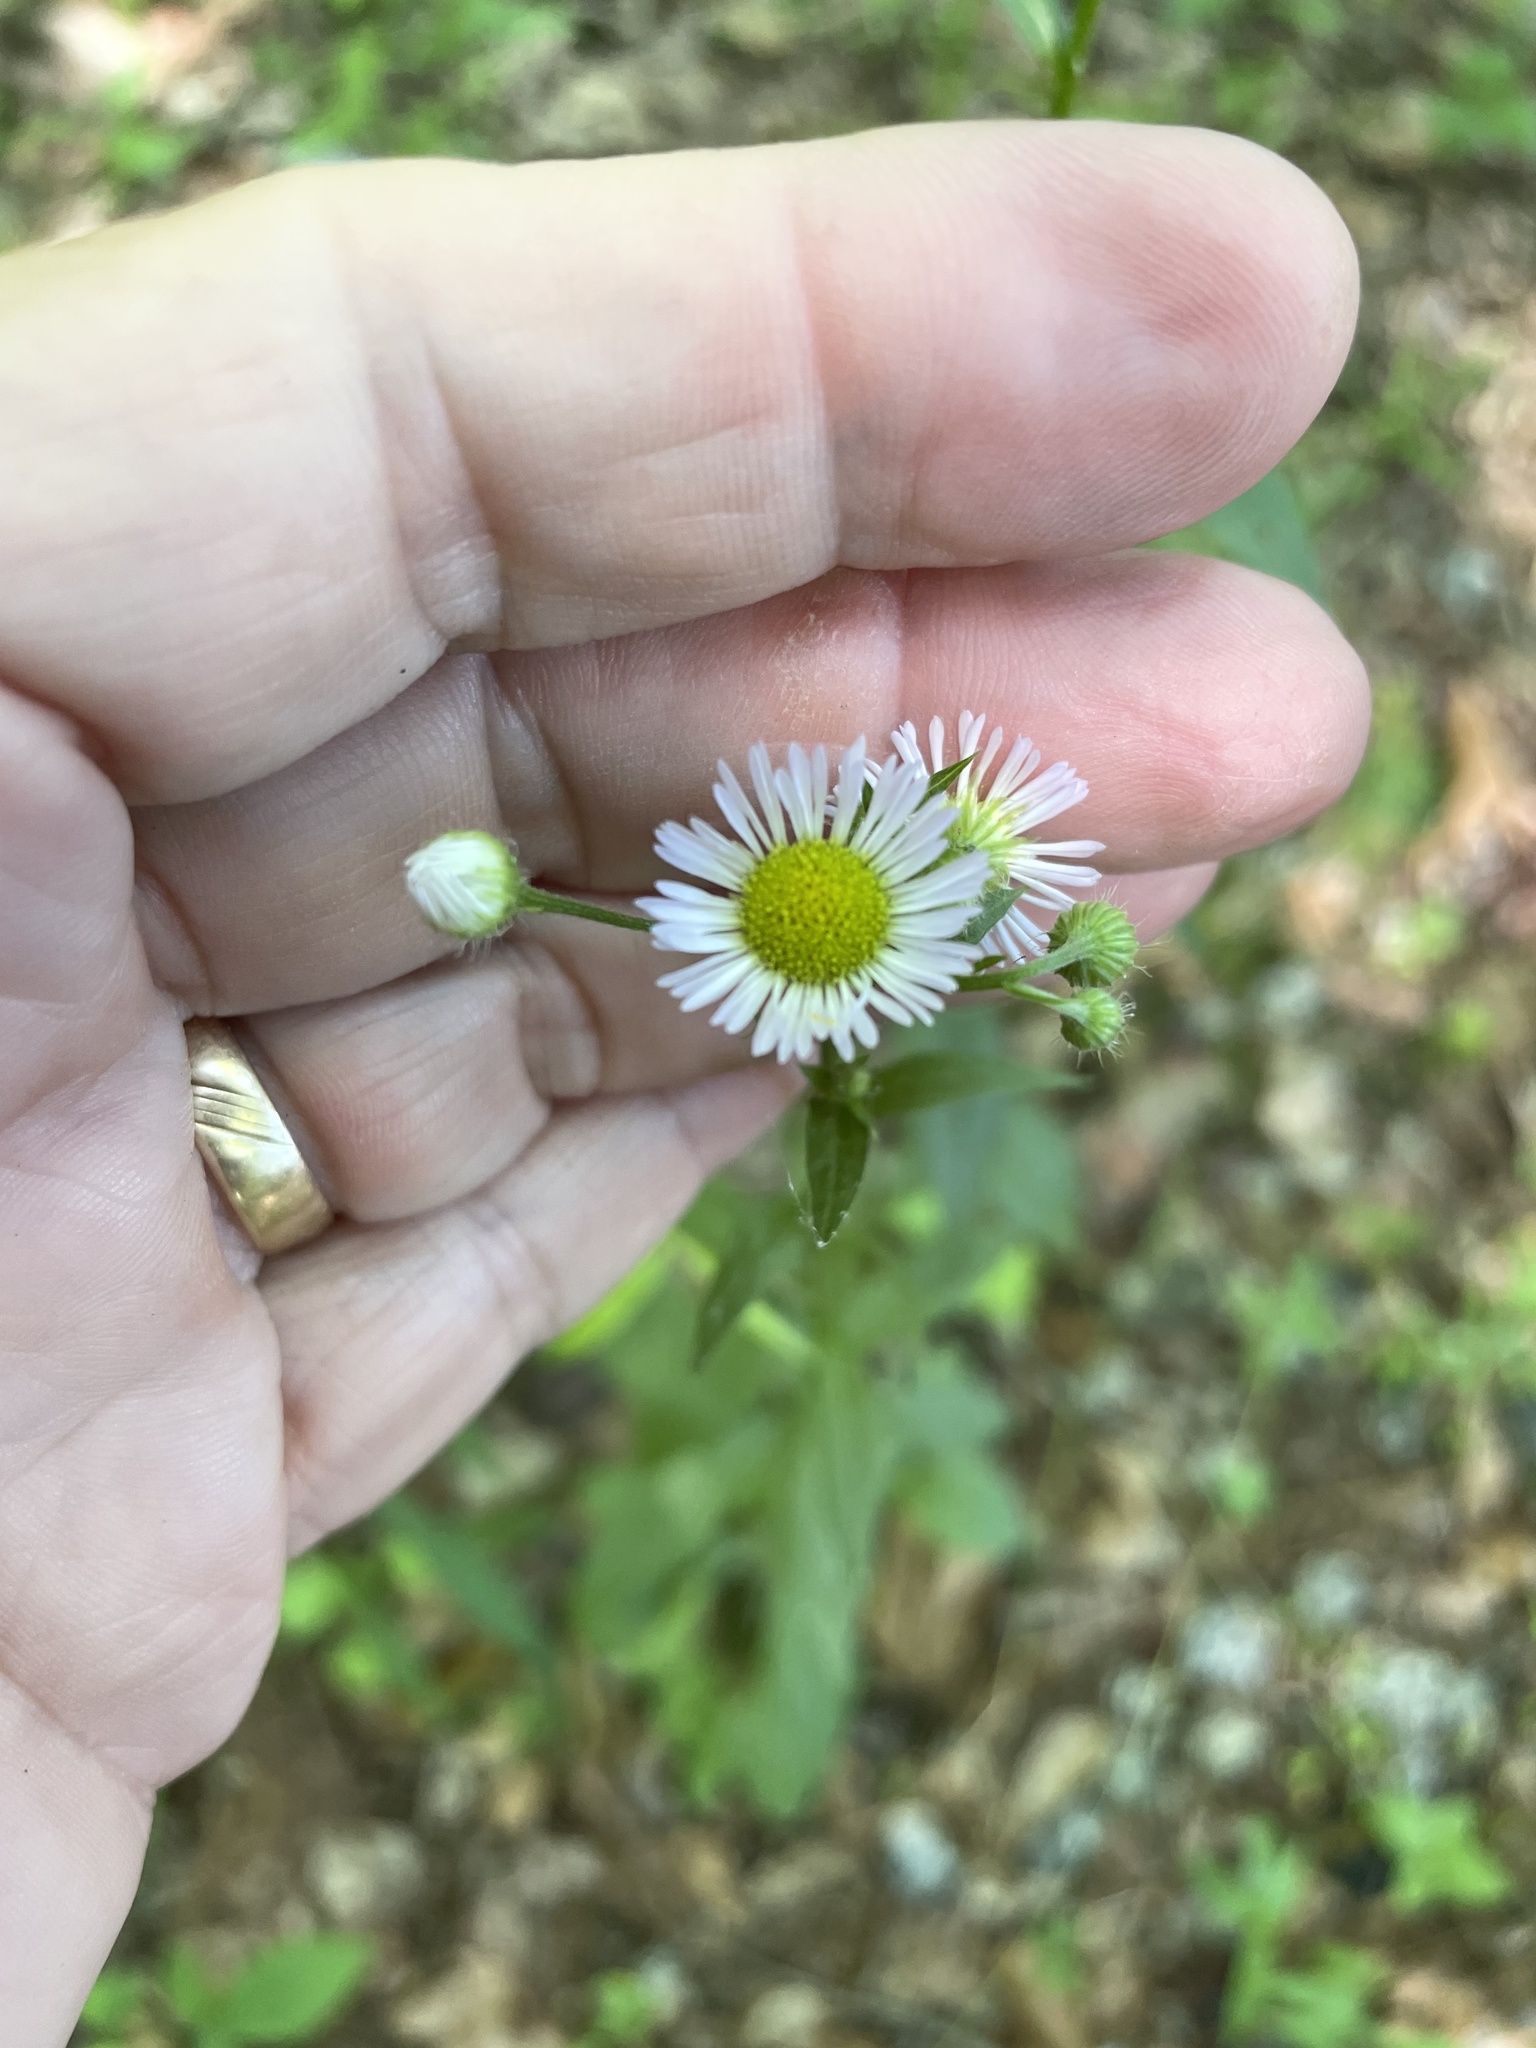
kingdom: Plantae
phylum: Tracheophyta
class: Magnoliopsida
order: Asterales
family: Asteraceae
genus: Erigeron
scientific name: Erigeron annuus
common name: Tall fleabane
